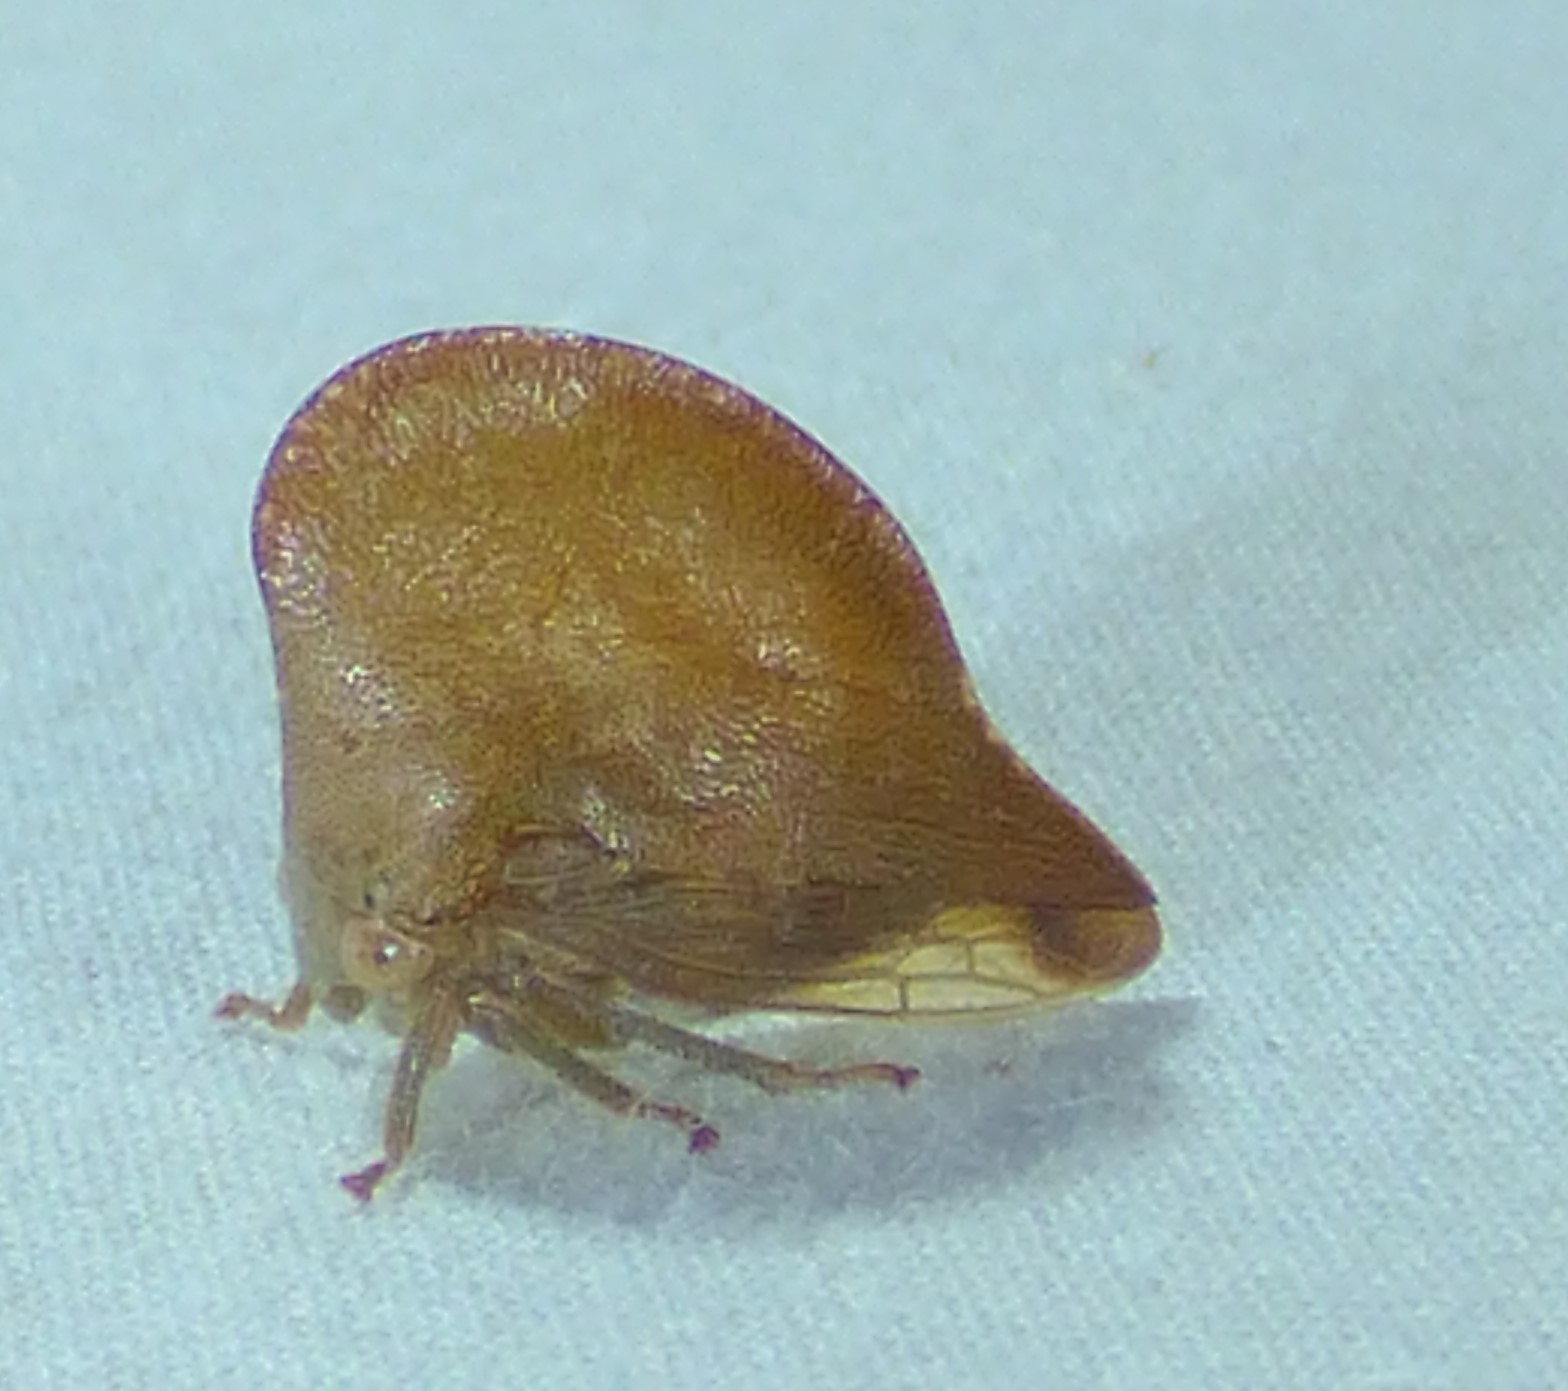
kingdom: Animalia
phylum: Arthropoda
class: Insecta
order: Hemiptera
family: Membracidae
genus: Telamona
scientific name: Telamona extrema
